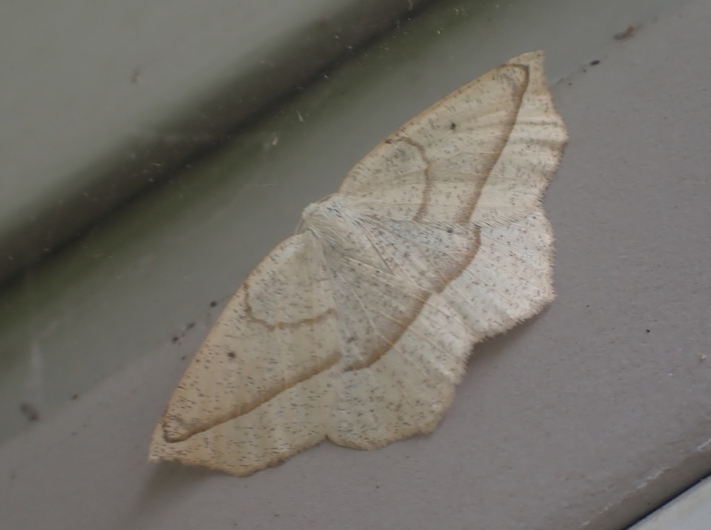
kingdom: Animalia
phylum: Arthropoda
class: Insecta
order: Lepidoptera
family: Geometridae
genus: Eusarca
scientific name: Eusarca confusaria
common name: Confused eusarca
